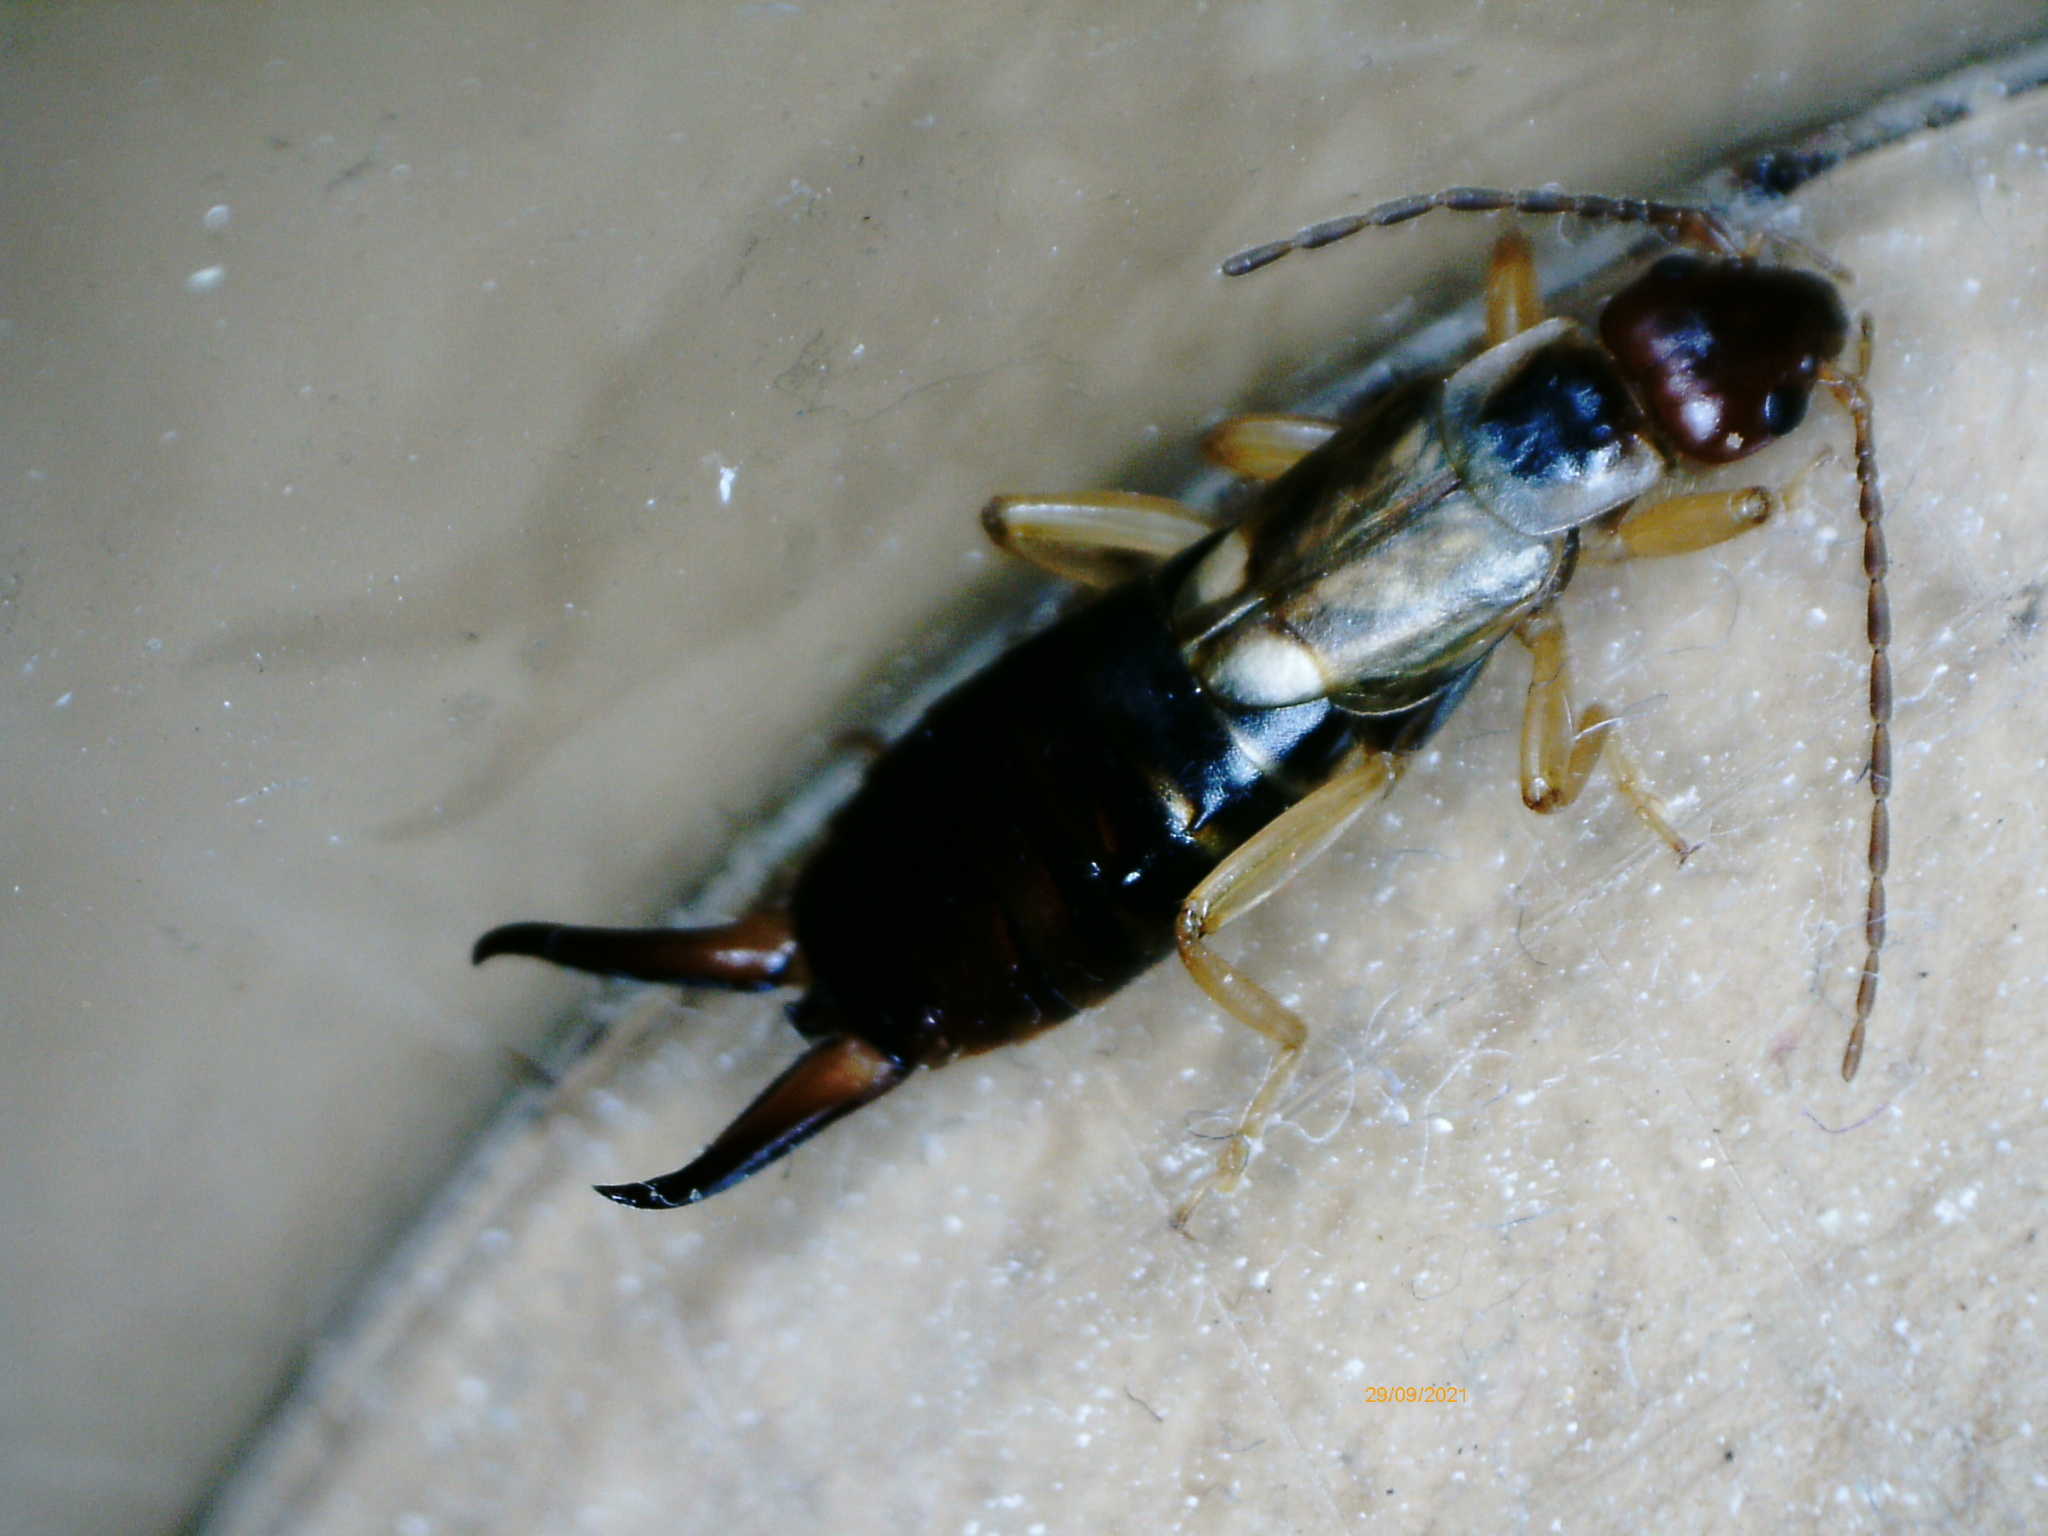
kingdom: Animalia
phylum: Arthropoda
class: Insecta
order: Dermaptera
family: Forficulidae
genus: Forficula
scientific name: Forficula
